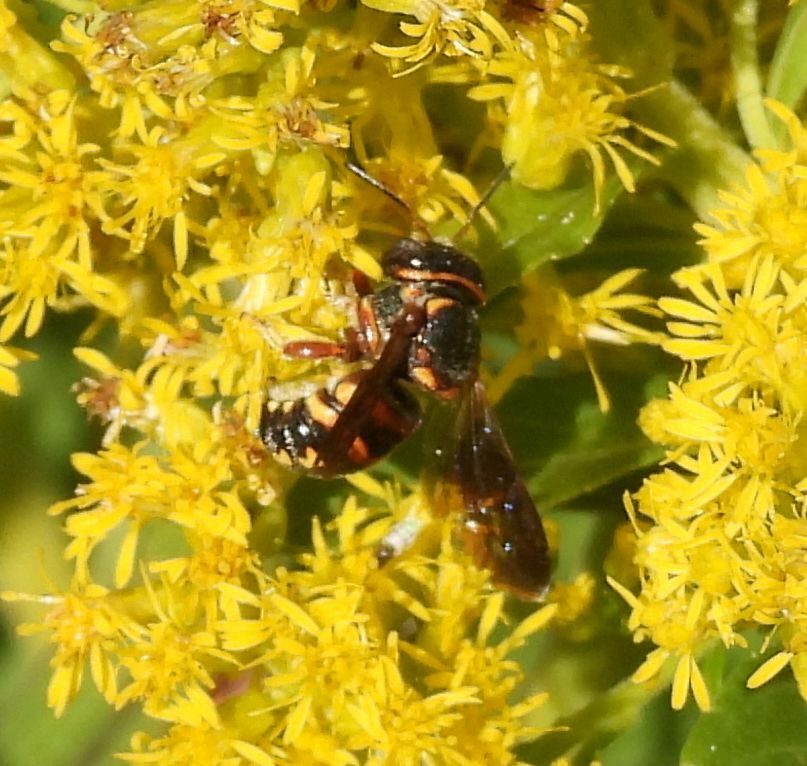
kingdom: Animalia
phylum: Arthropoda
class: Insecta
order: Hymenoptera
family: Megachilidae
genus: Anthidiellum
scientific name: Anthidiellum perplexum
